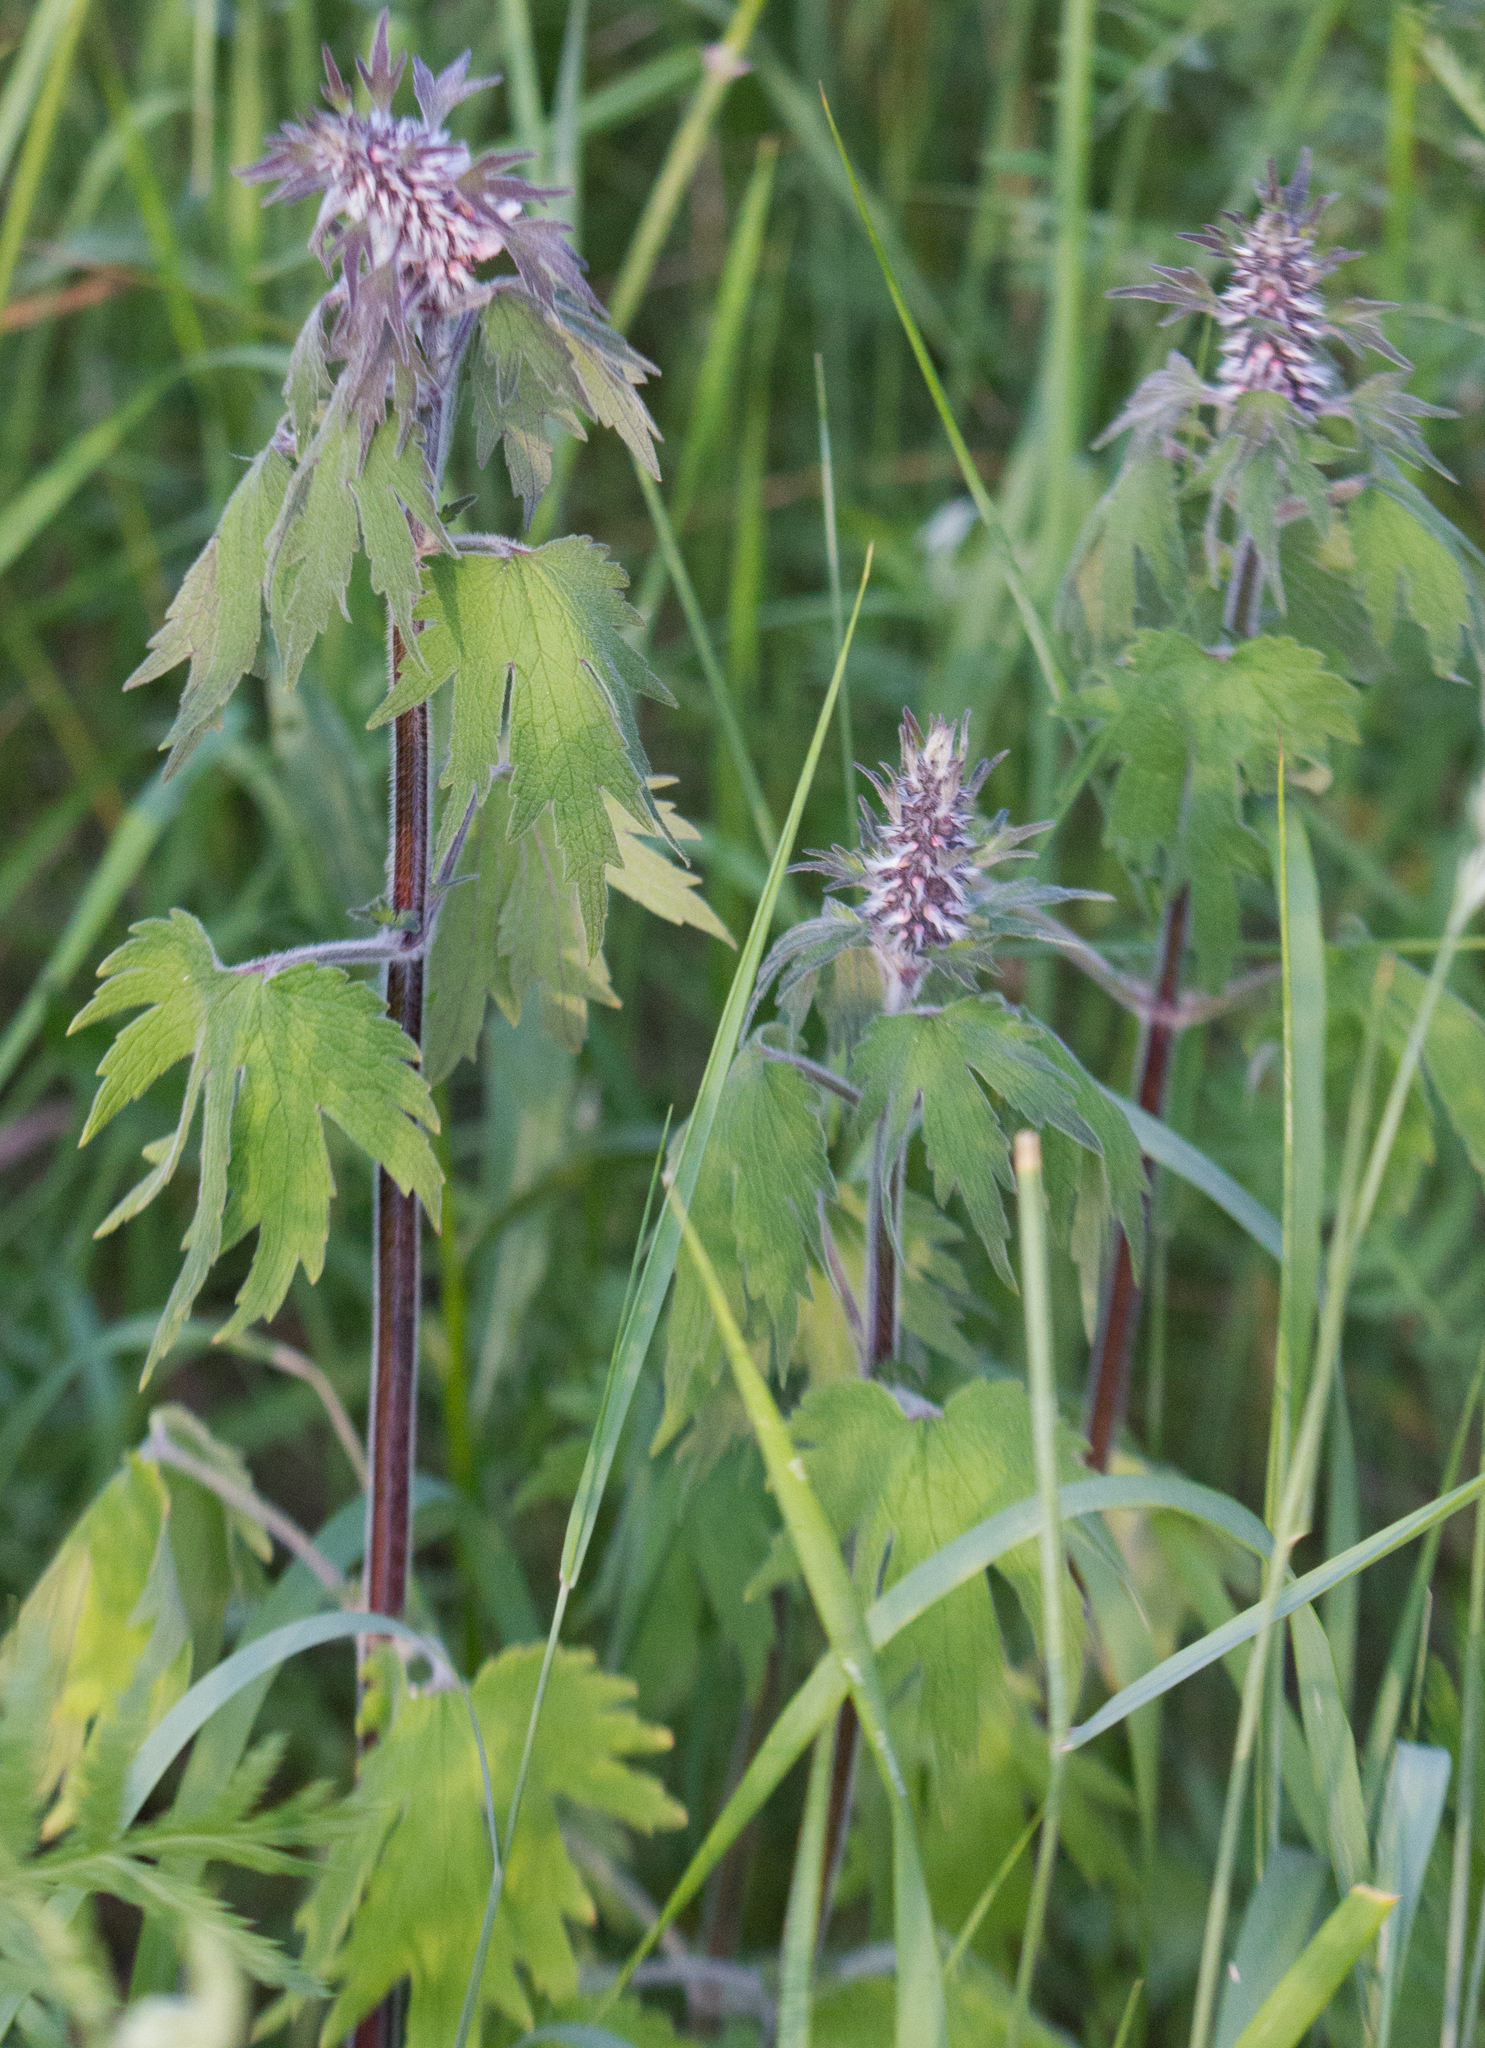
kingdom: Plantae
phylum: Tracheophyta
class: Magnoliopsida
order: Lamiales
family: Lamiaceae
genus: Leonurus
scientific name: Leonurus quinquelobatus
